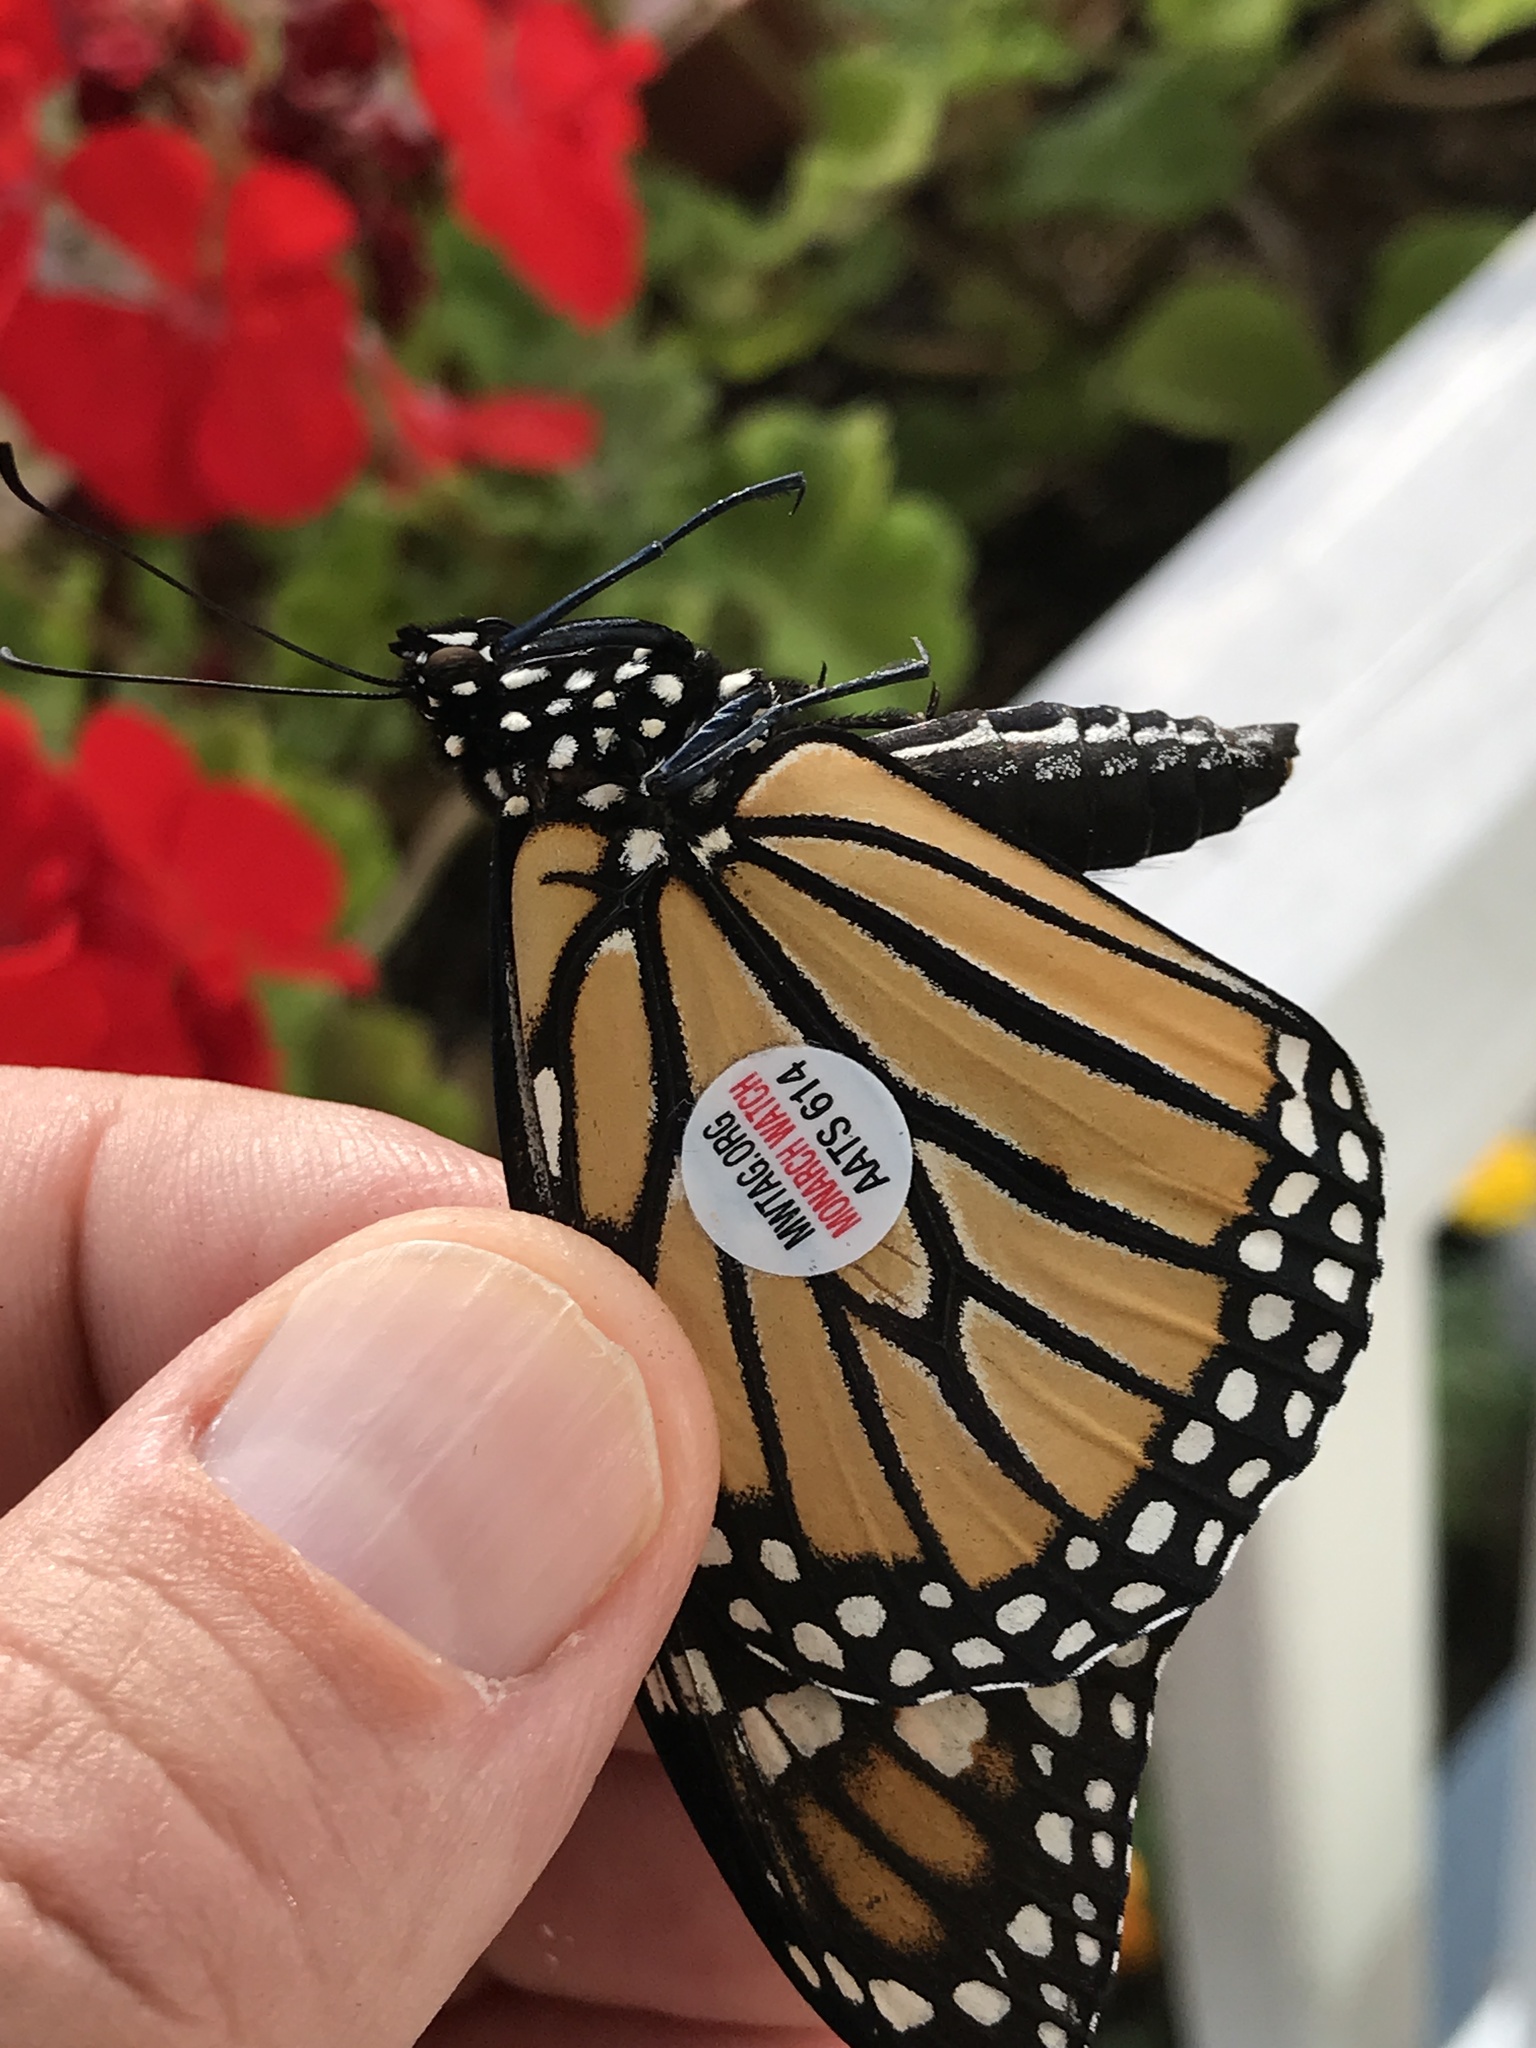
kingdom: Animalia
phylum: Arthropoda
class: Insecta
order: Lepidoptera
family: Nymphalidae
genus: Danaus
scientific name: Danaus plexippus
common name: Monarch
